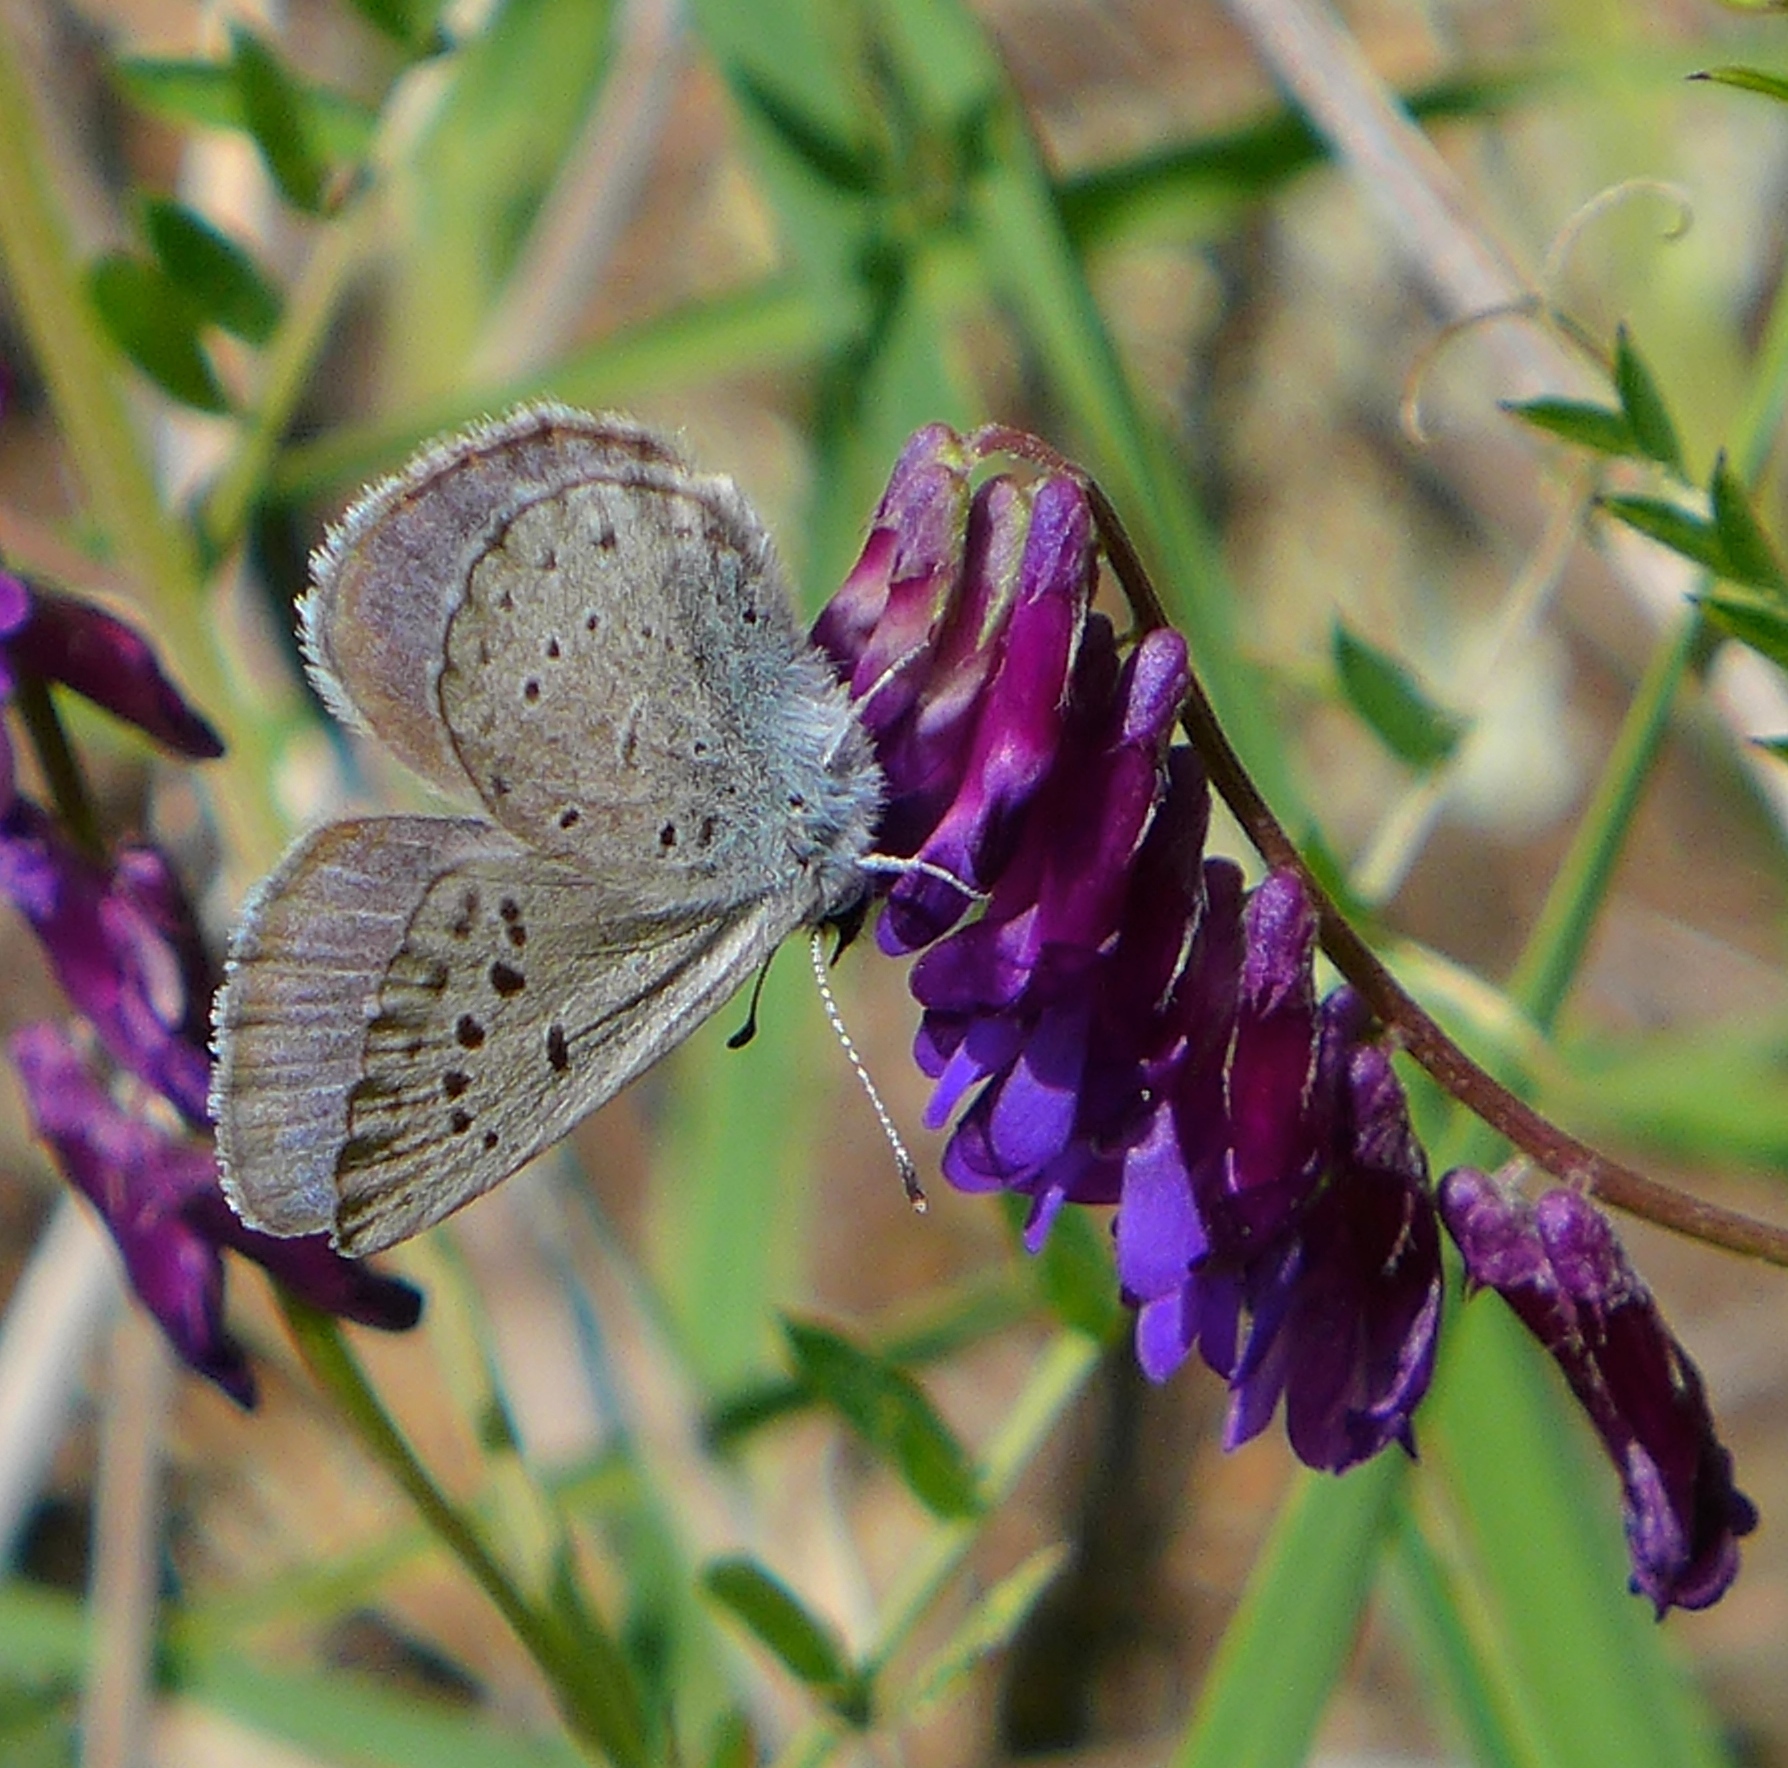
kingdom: Animalia
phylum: Arthropoda
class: Insecta
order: Lepidoptera
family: Lycaenidae
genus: Icaricia
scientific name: Icaricia icarioides
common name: Boisduval's blue
